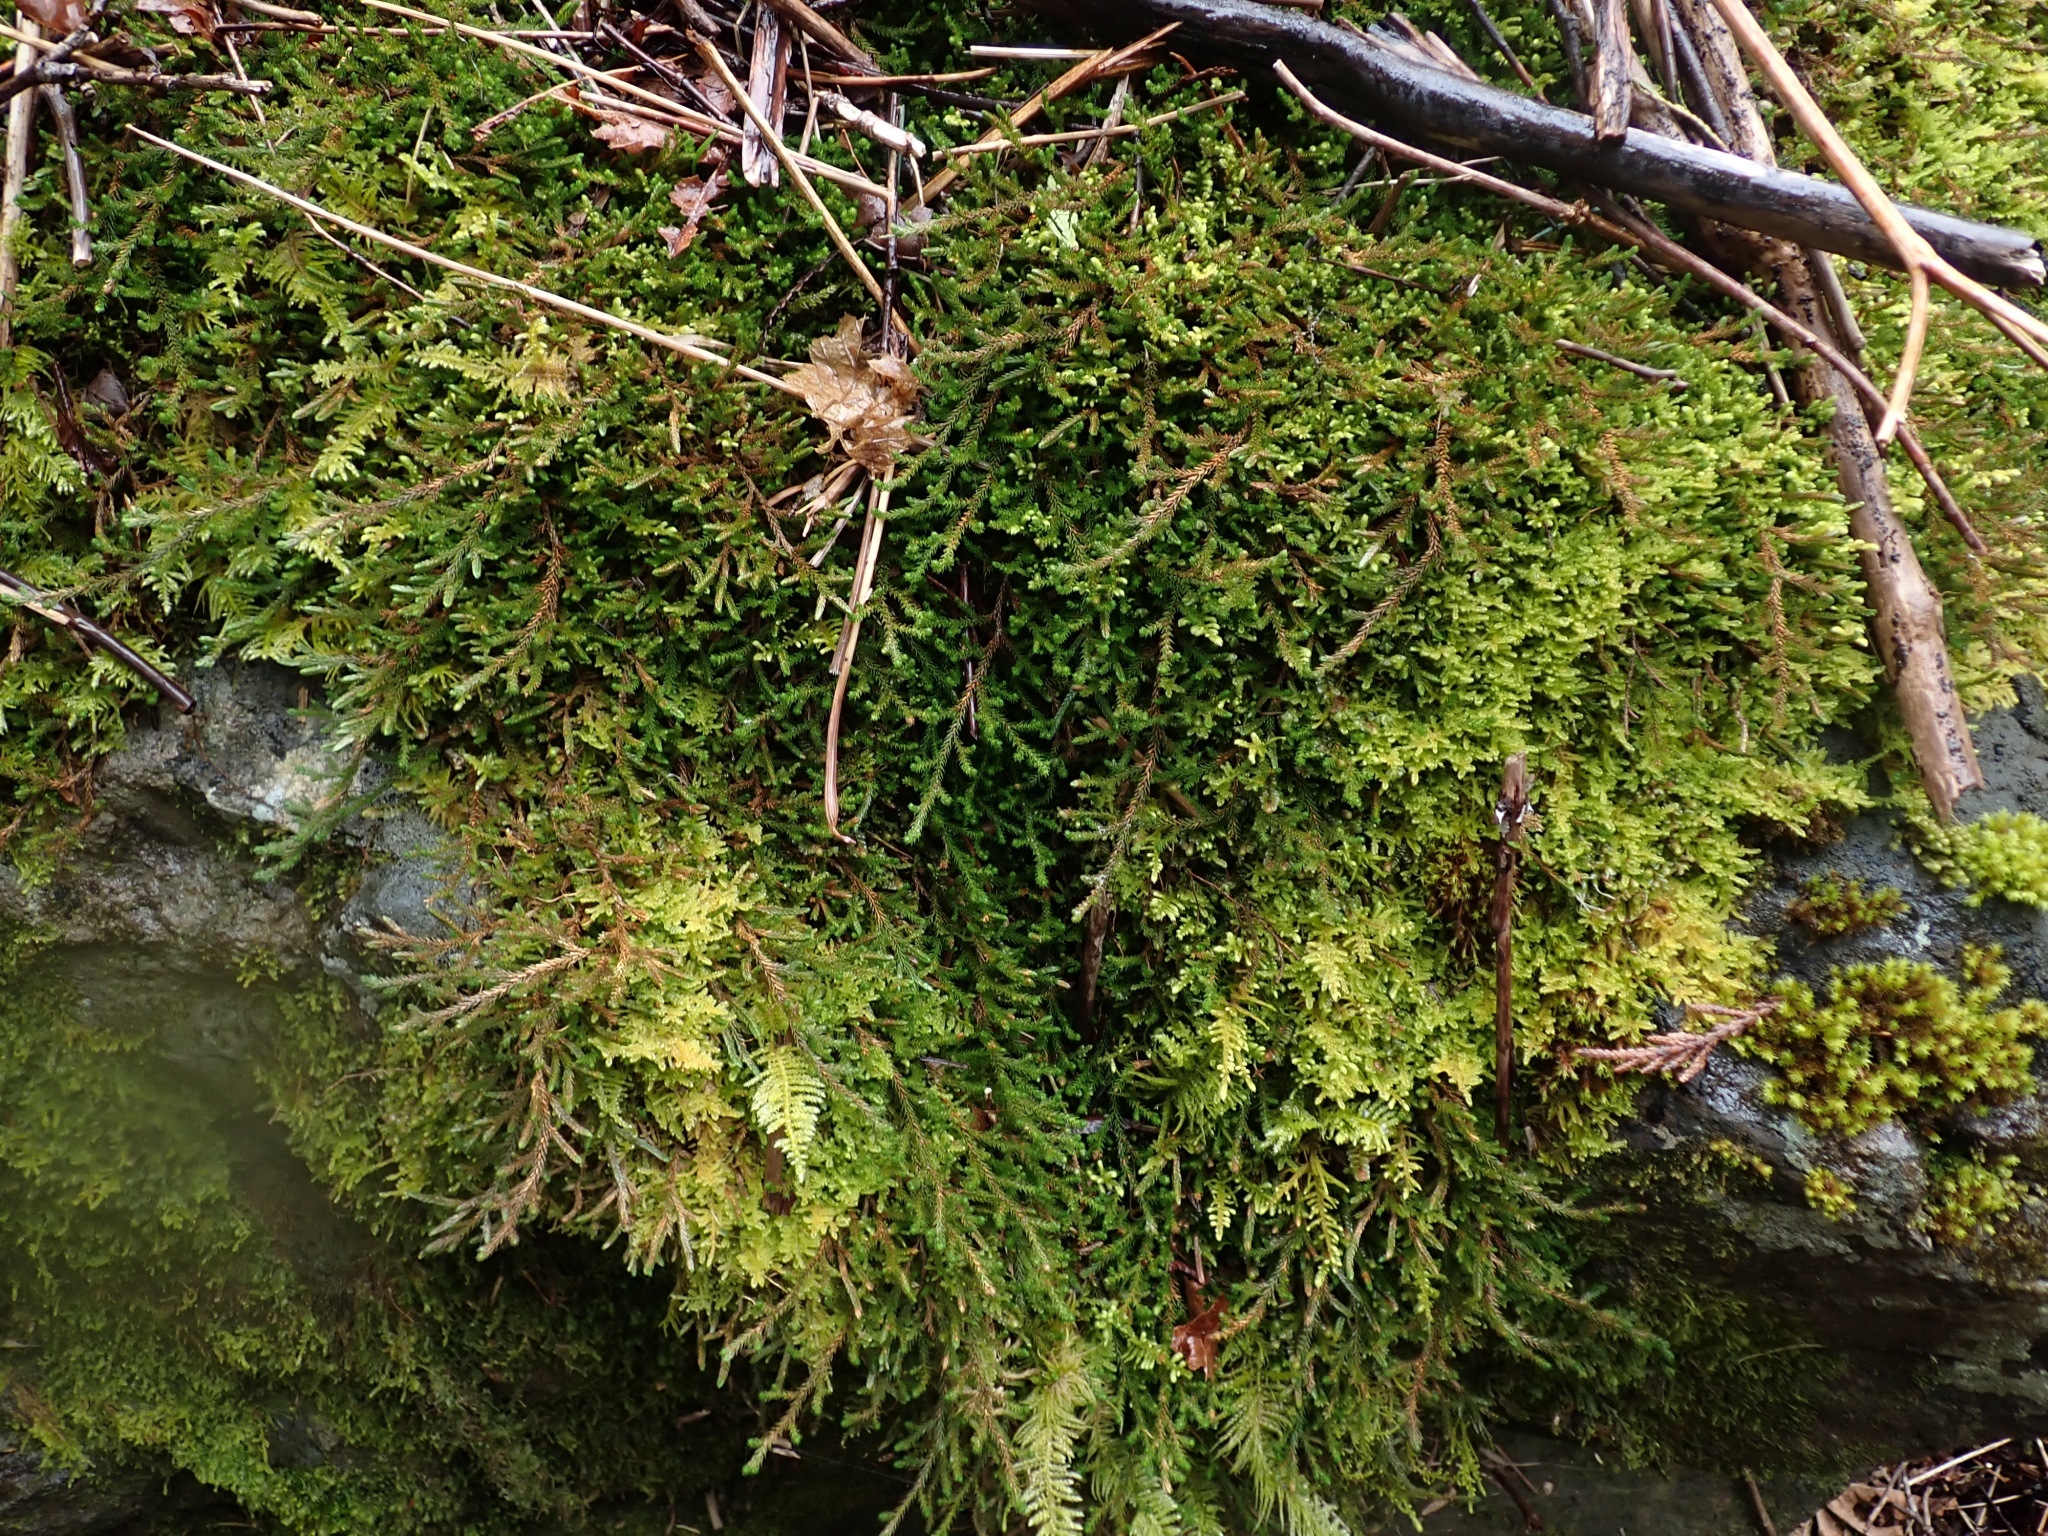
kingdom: Plantae
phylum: Tracheophyta
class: Lycopodiopsida
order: Selaginellales
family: Selaginellaceae
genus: Selaginella
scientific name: Selaginella wallacei
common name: Wallace's selaginella
